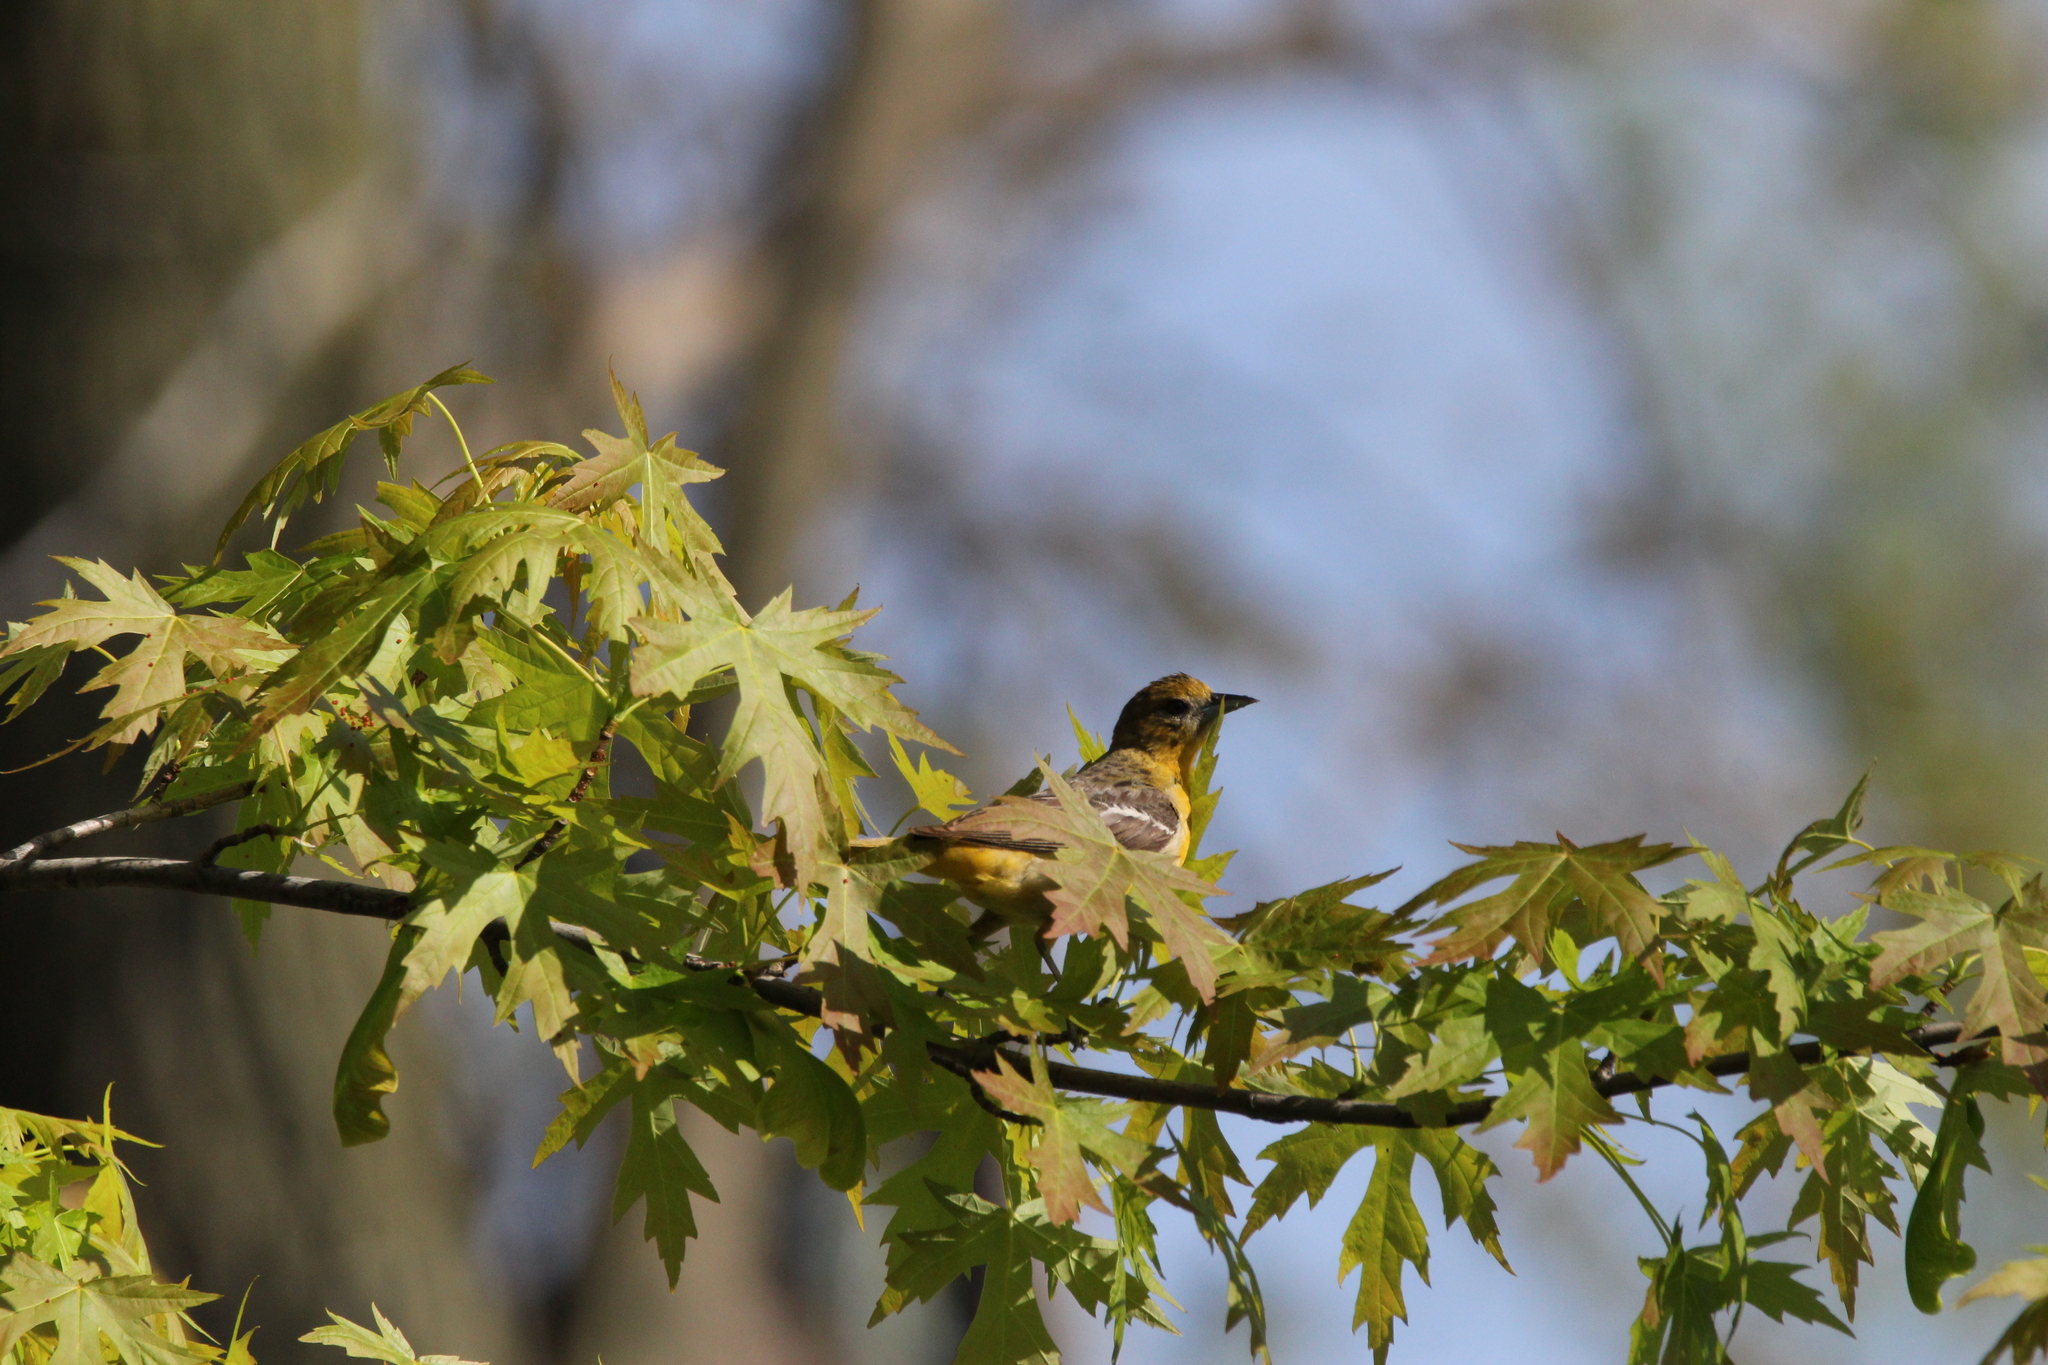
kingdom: Animalia
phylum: Chordata
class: Aves
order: Passeriformes
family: Icteridae
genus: Icterus
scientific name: Icterus galbula
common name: Baltimore oriole
